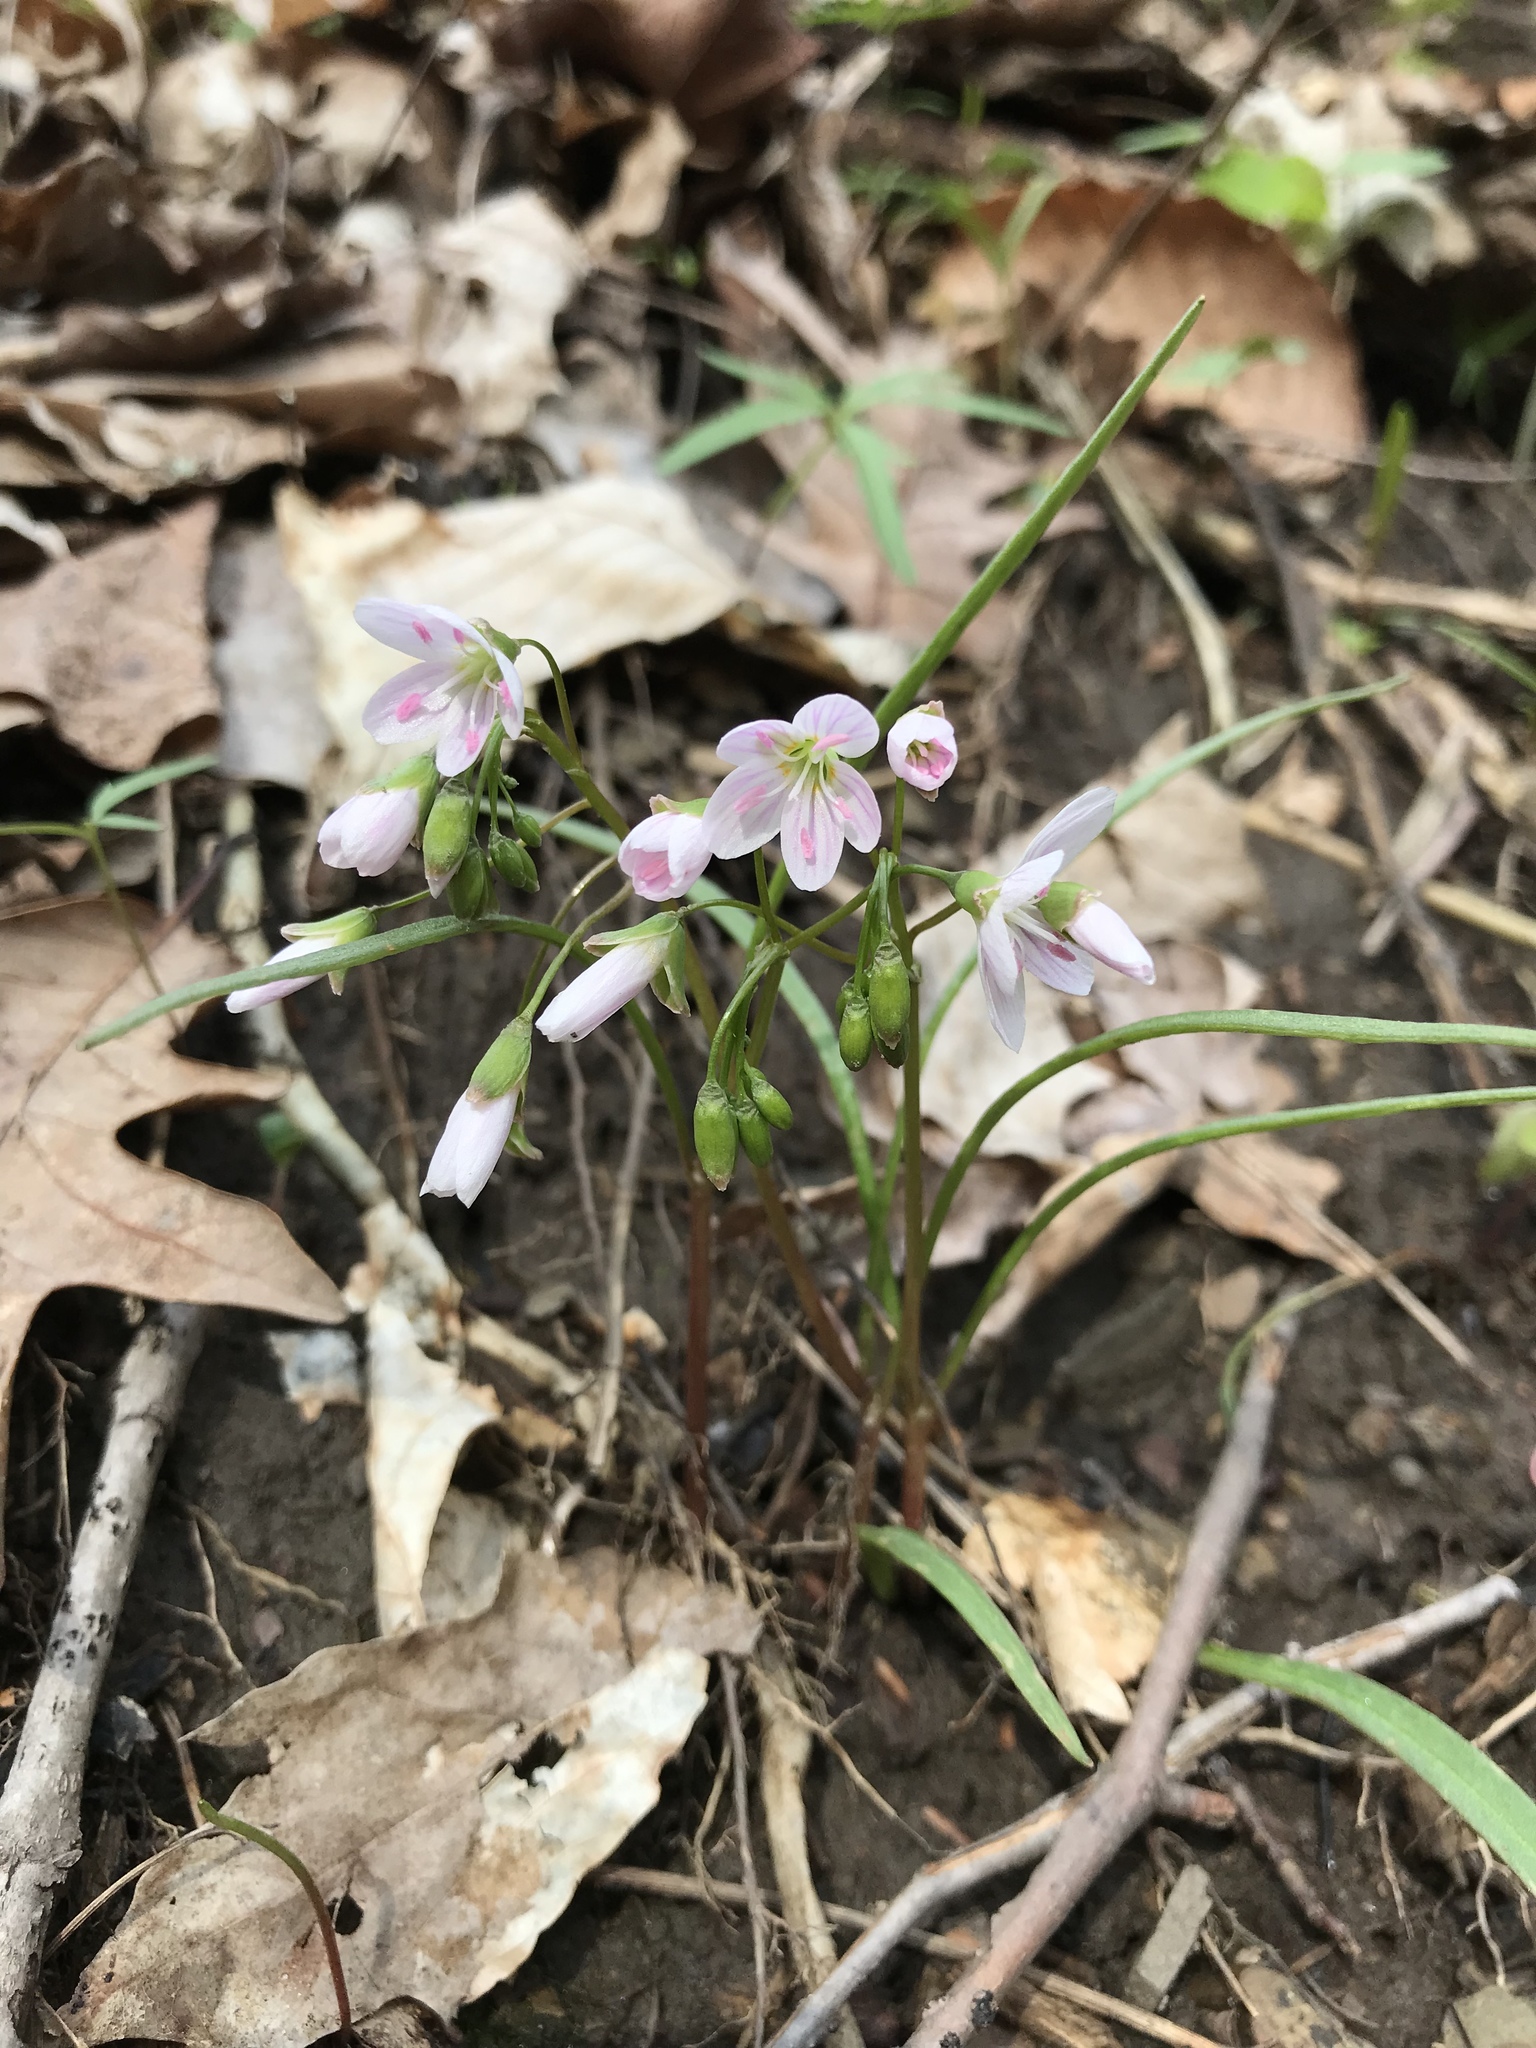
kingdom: Plantae
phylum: Tracheophyta
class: Magnoliopsida
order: Caryophyllales
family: Montiaceae
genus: Claytonia
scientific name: Claytonia virginica
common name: Virginia springbeauty
